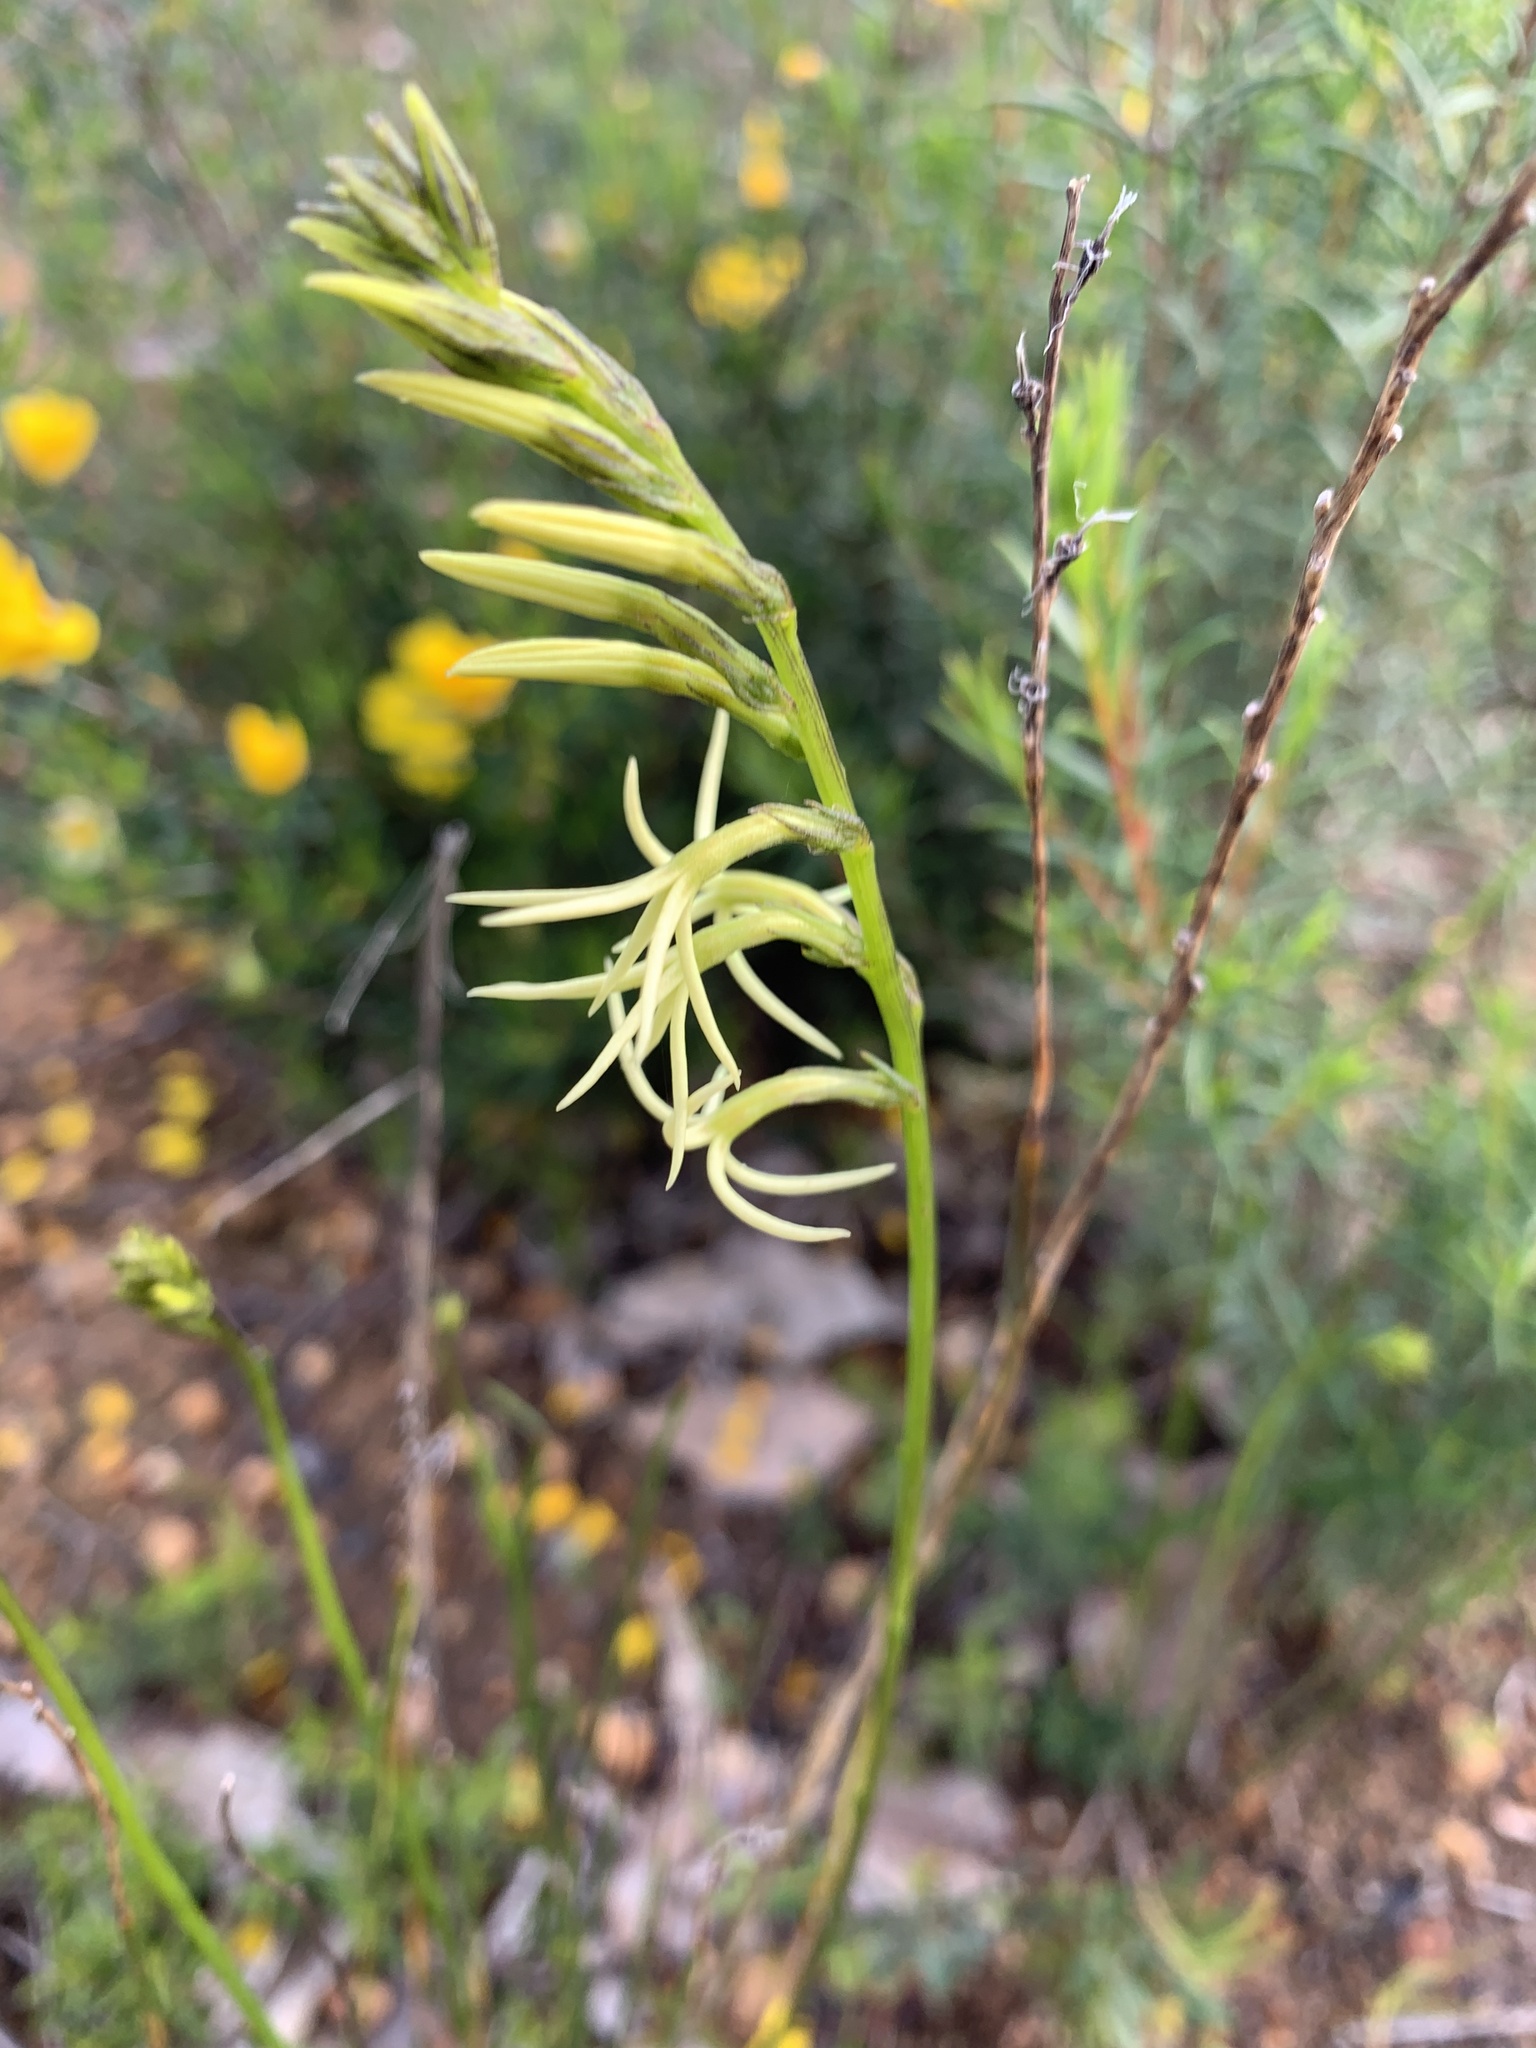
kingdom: Plantae
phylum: Tracheophyta
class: Magnoliopsida
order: Celastrales
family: Celastraceae
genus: Tripterococcus
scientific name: Tripterococcus brunonis
